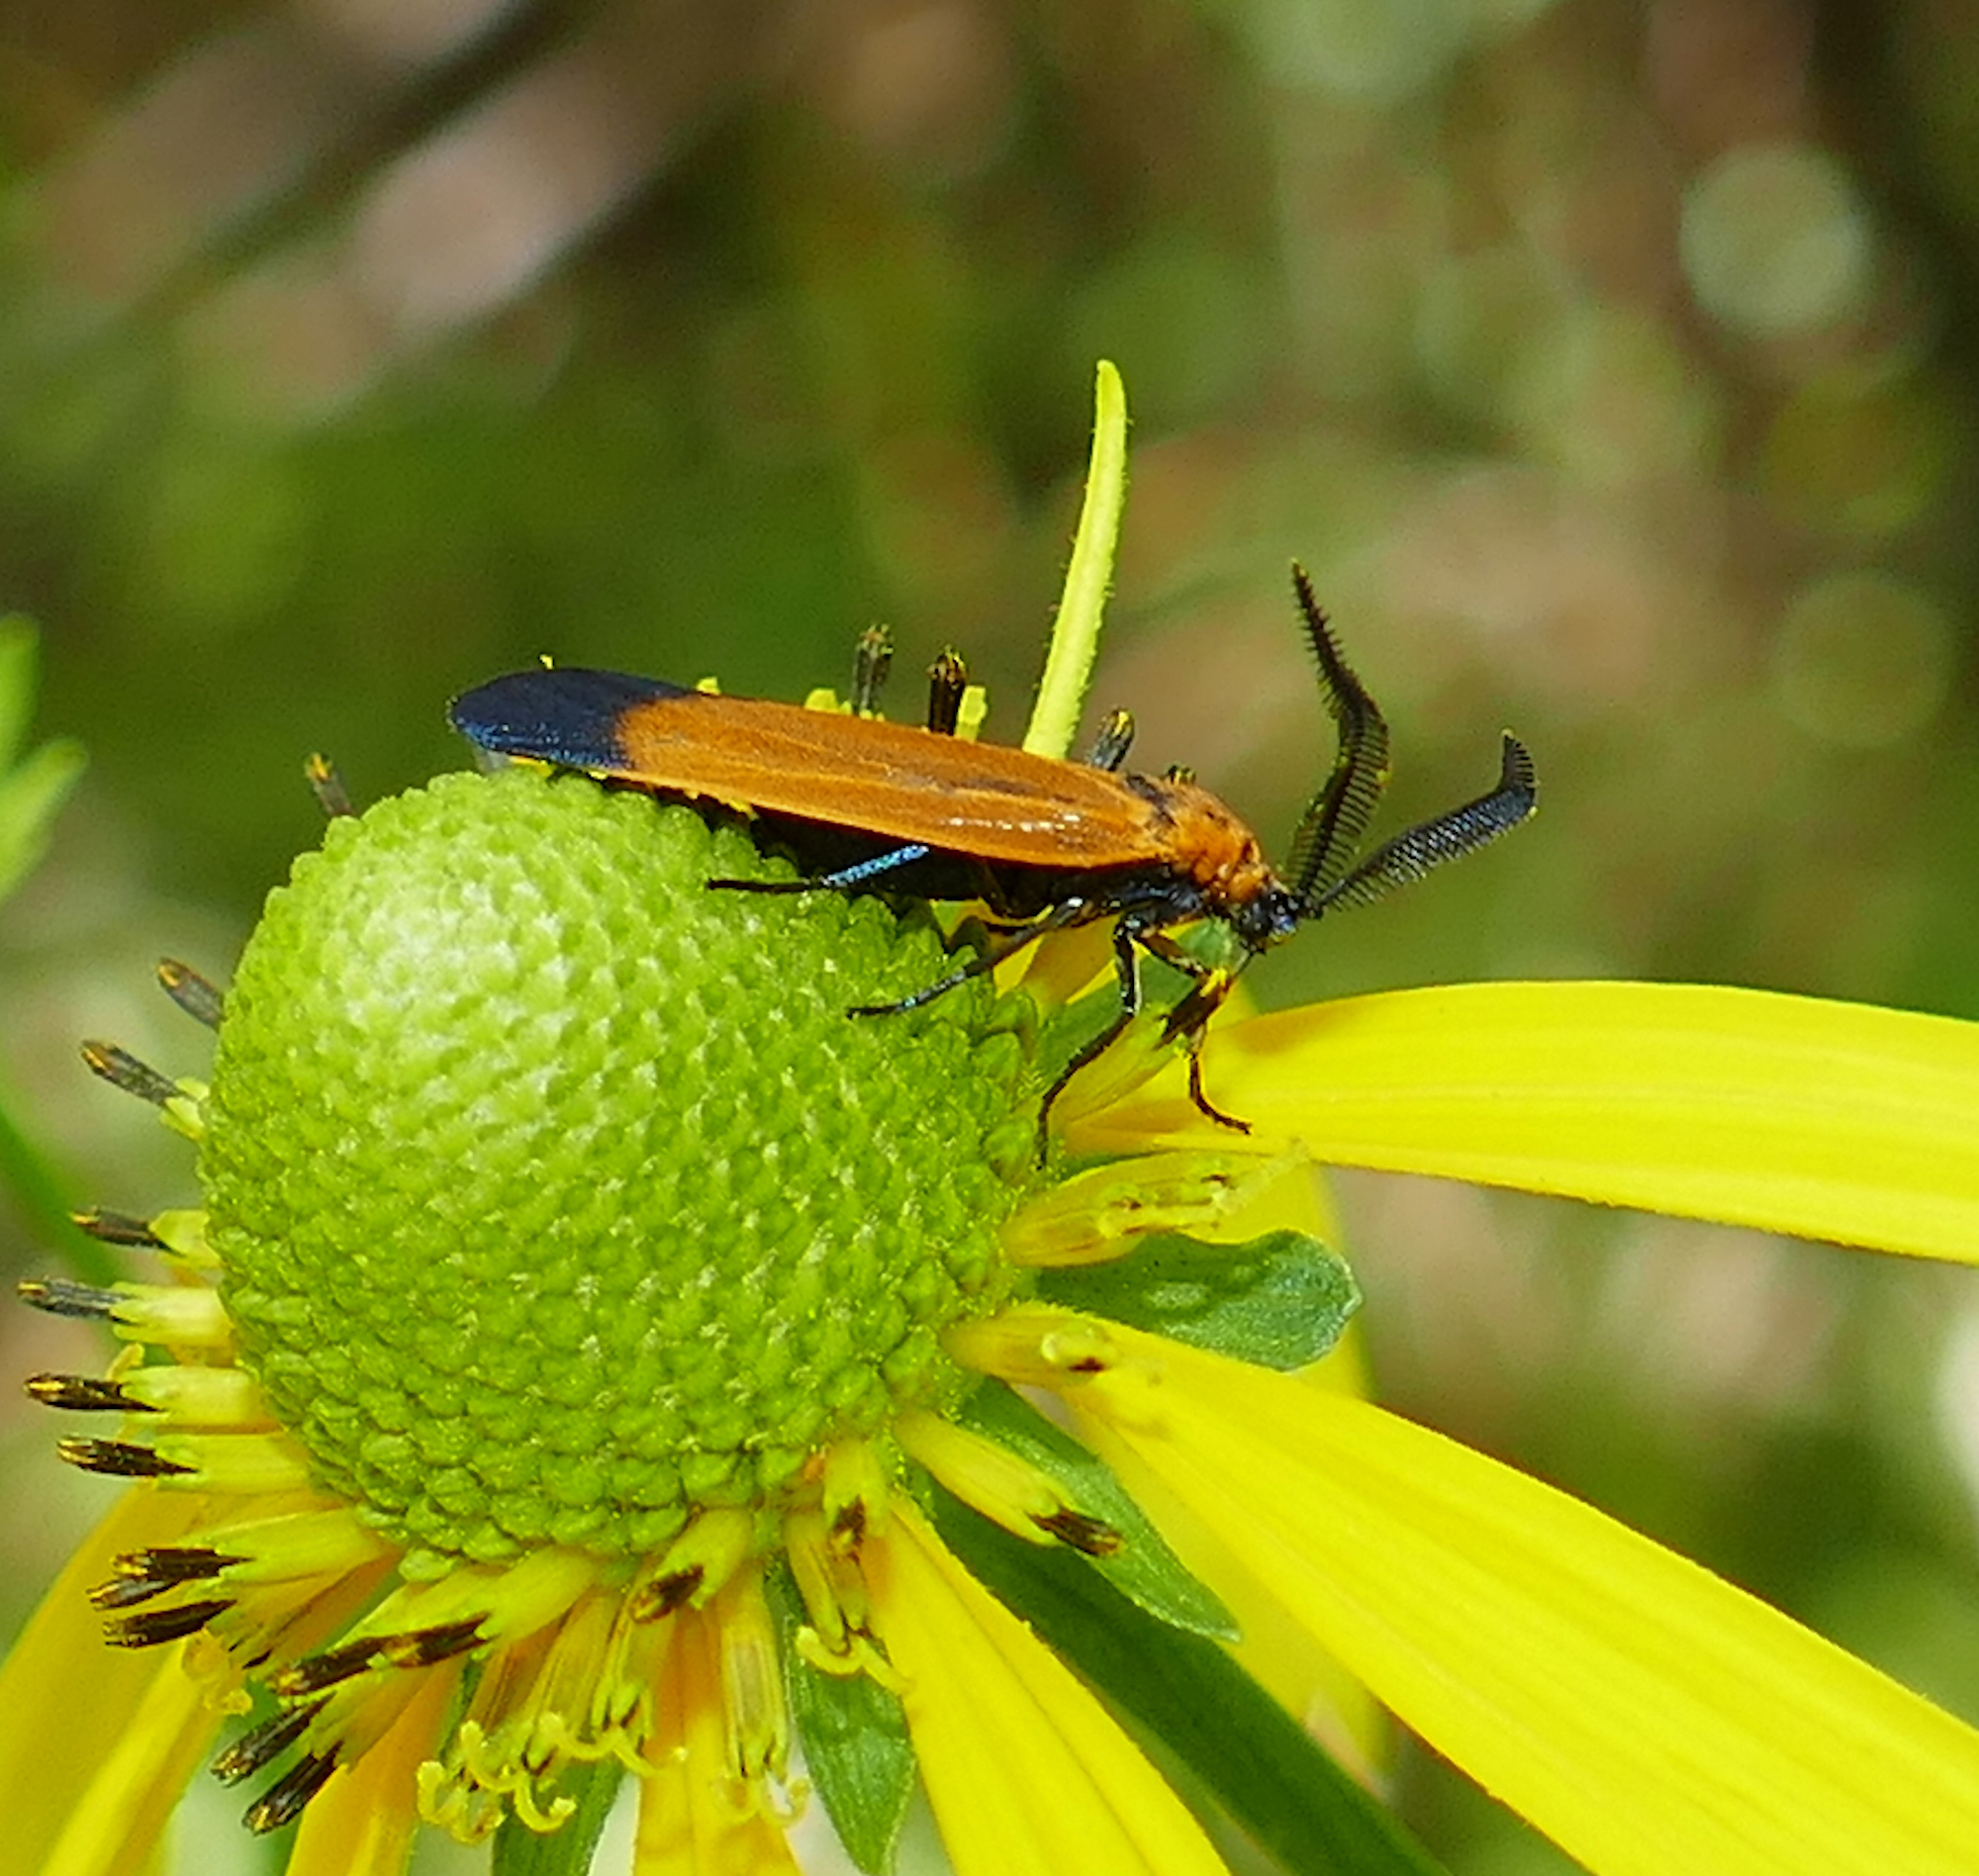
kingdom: Animalia
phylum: Arthropoda
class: Insecta
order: Lepidoptera
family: Zygaenidae
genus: Neoalbertia
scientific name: Neoalbertia constans
